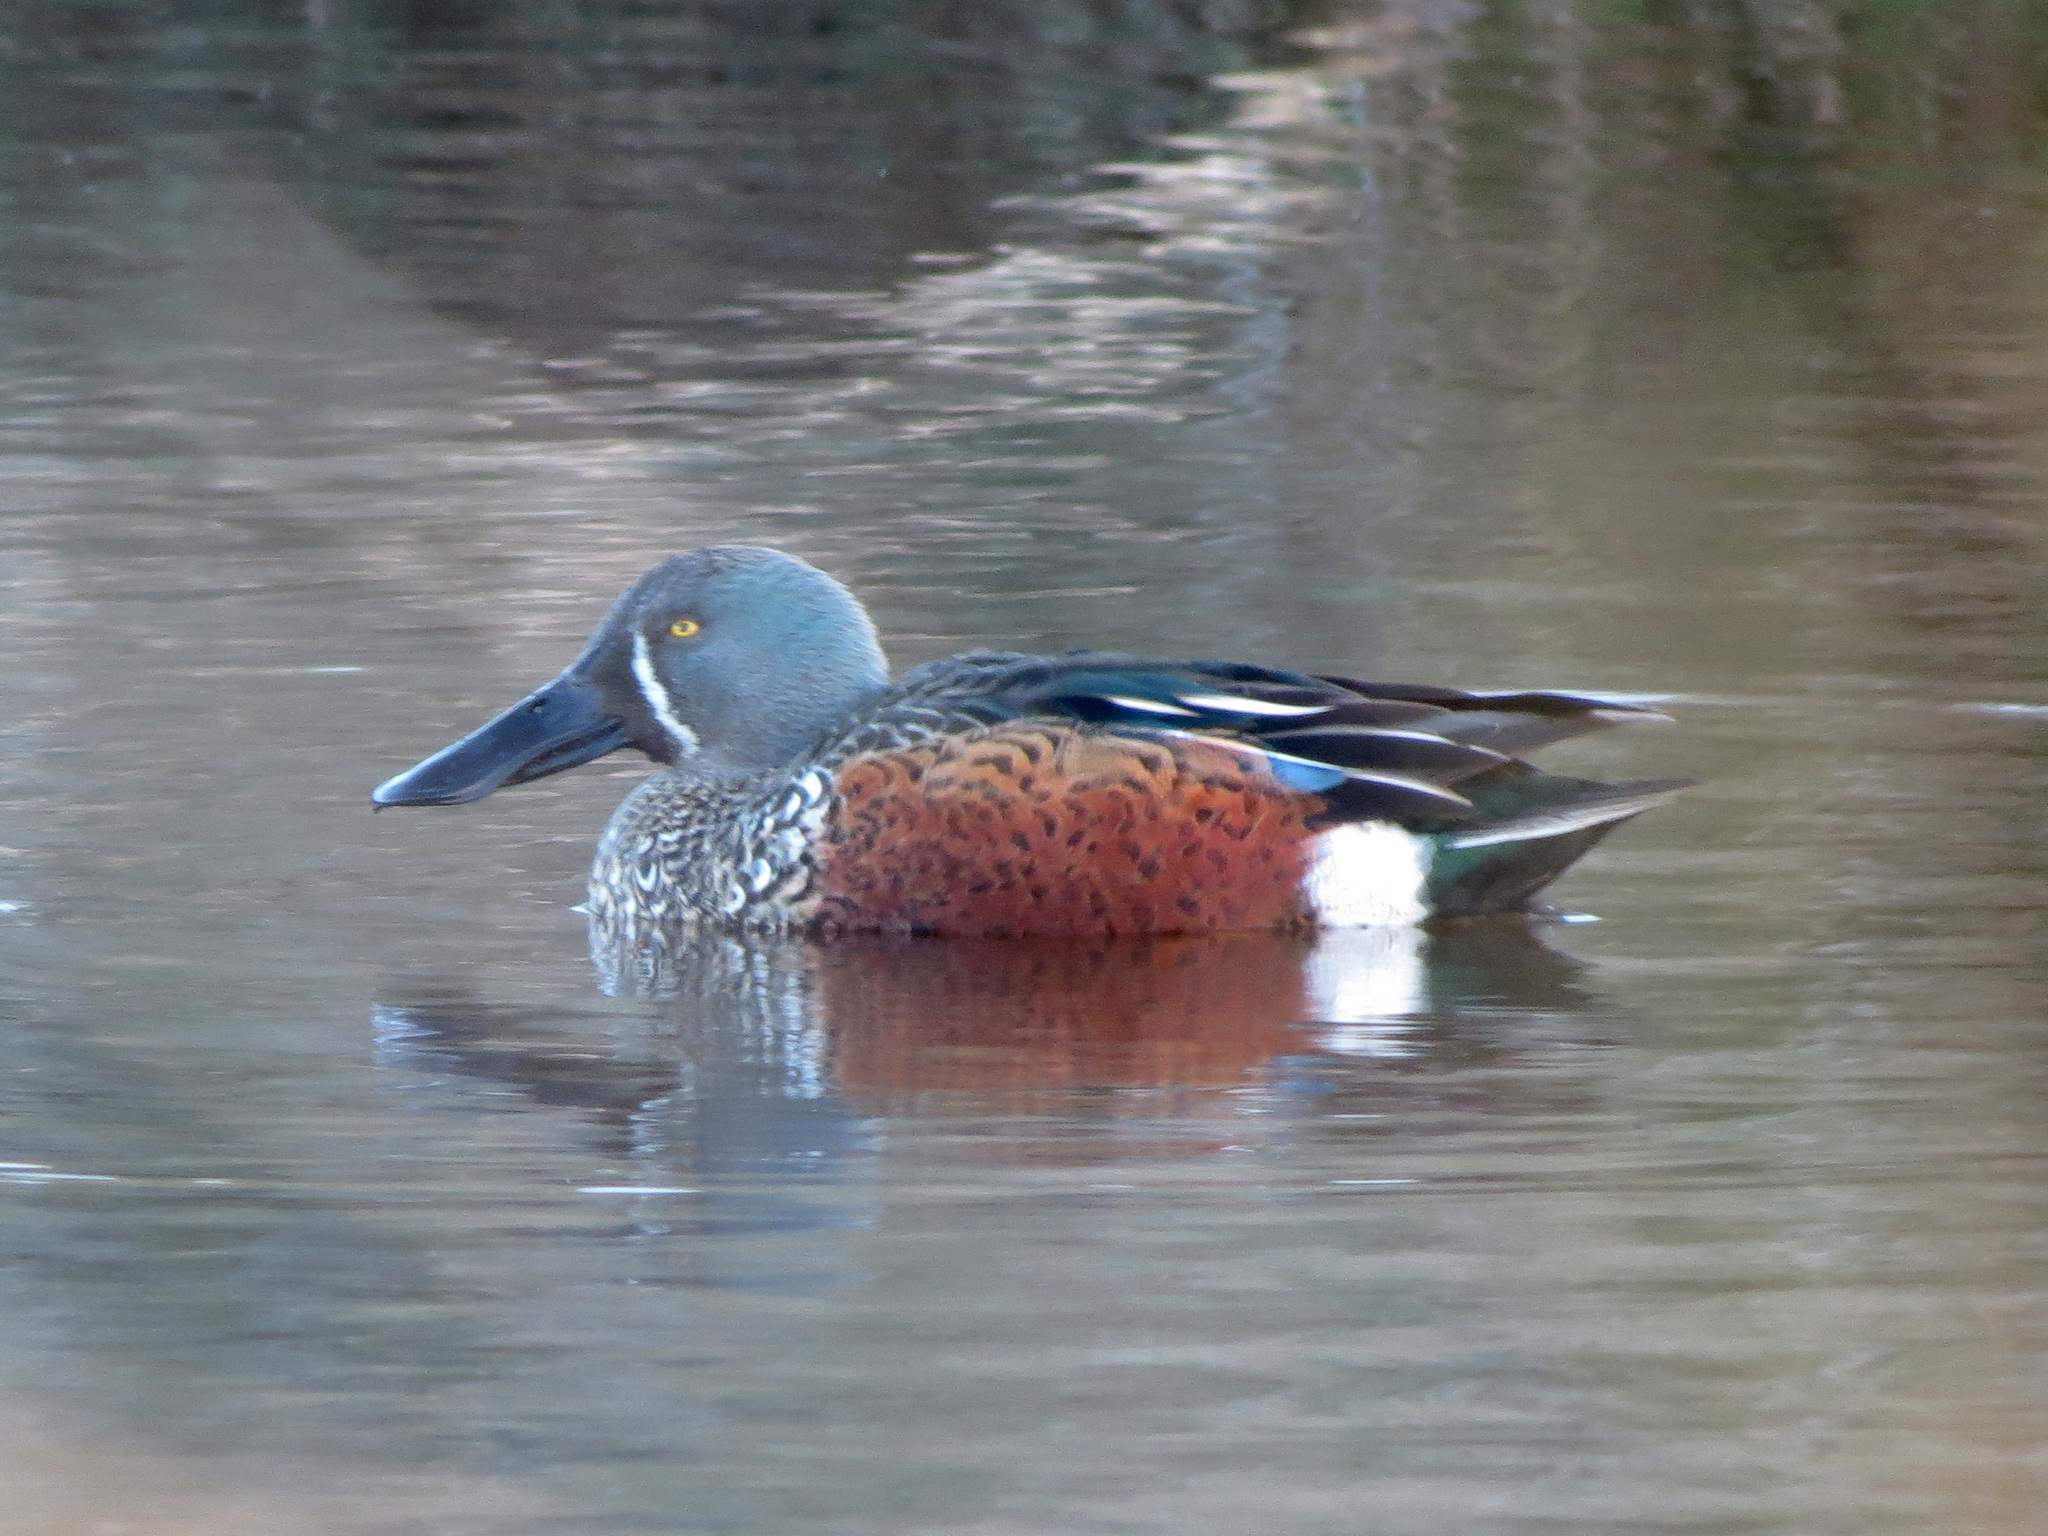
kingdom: Animalia
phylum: Chordata
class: Aves
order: Anseriformes
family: Anatidae
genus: Spatula
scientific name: Spatula rhynchotis
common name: Australian shoveler
